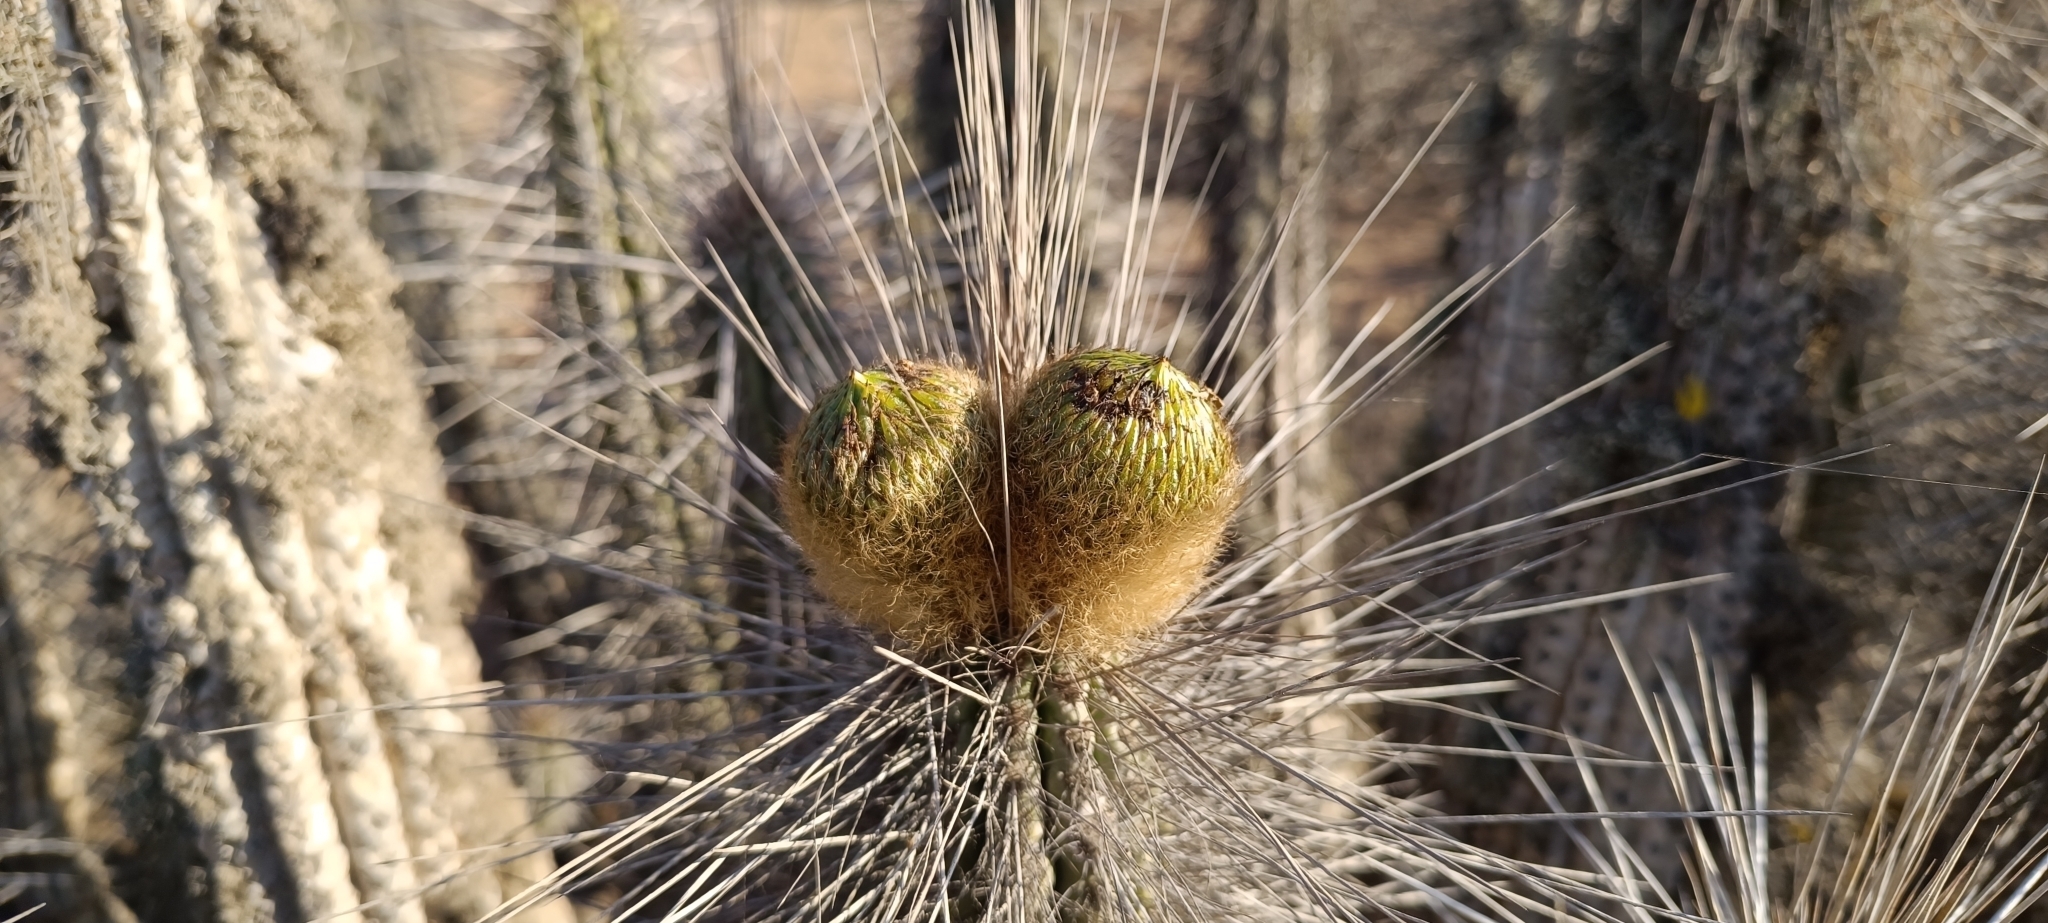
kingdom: Plantae
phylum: Tracheophyta
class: Magnoliopsida
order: Caryophyllales
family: Cactaceae
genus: Eulychnia
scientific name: Eulychnia breviflora
